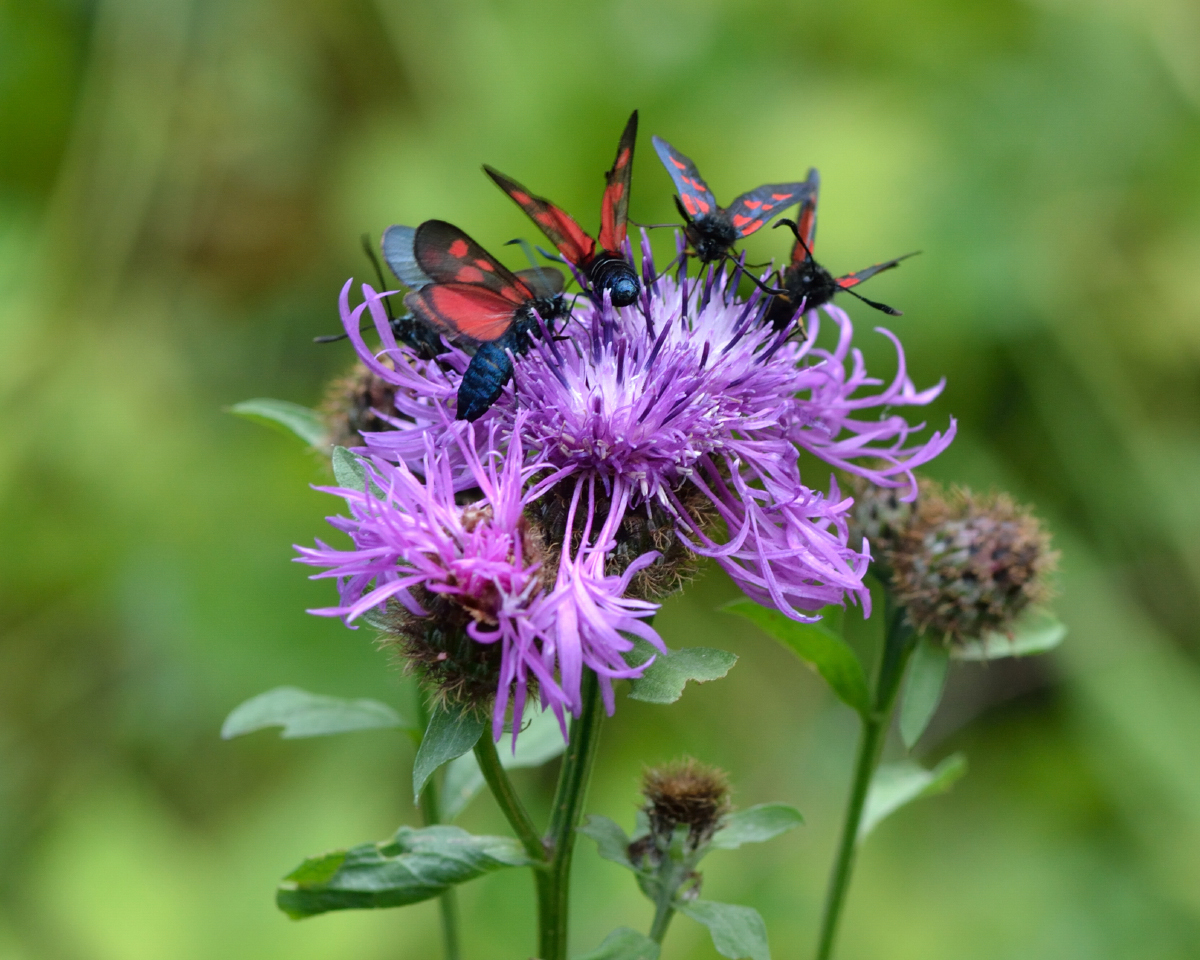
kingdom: Animalia
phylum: Arthropoda
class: Insecta
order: Lepidoptera
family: Zygaenidae
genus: Zygaena
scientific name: Zygaena viciae
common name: New forest burnet
